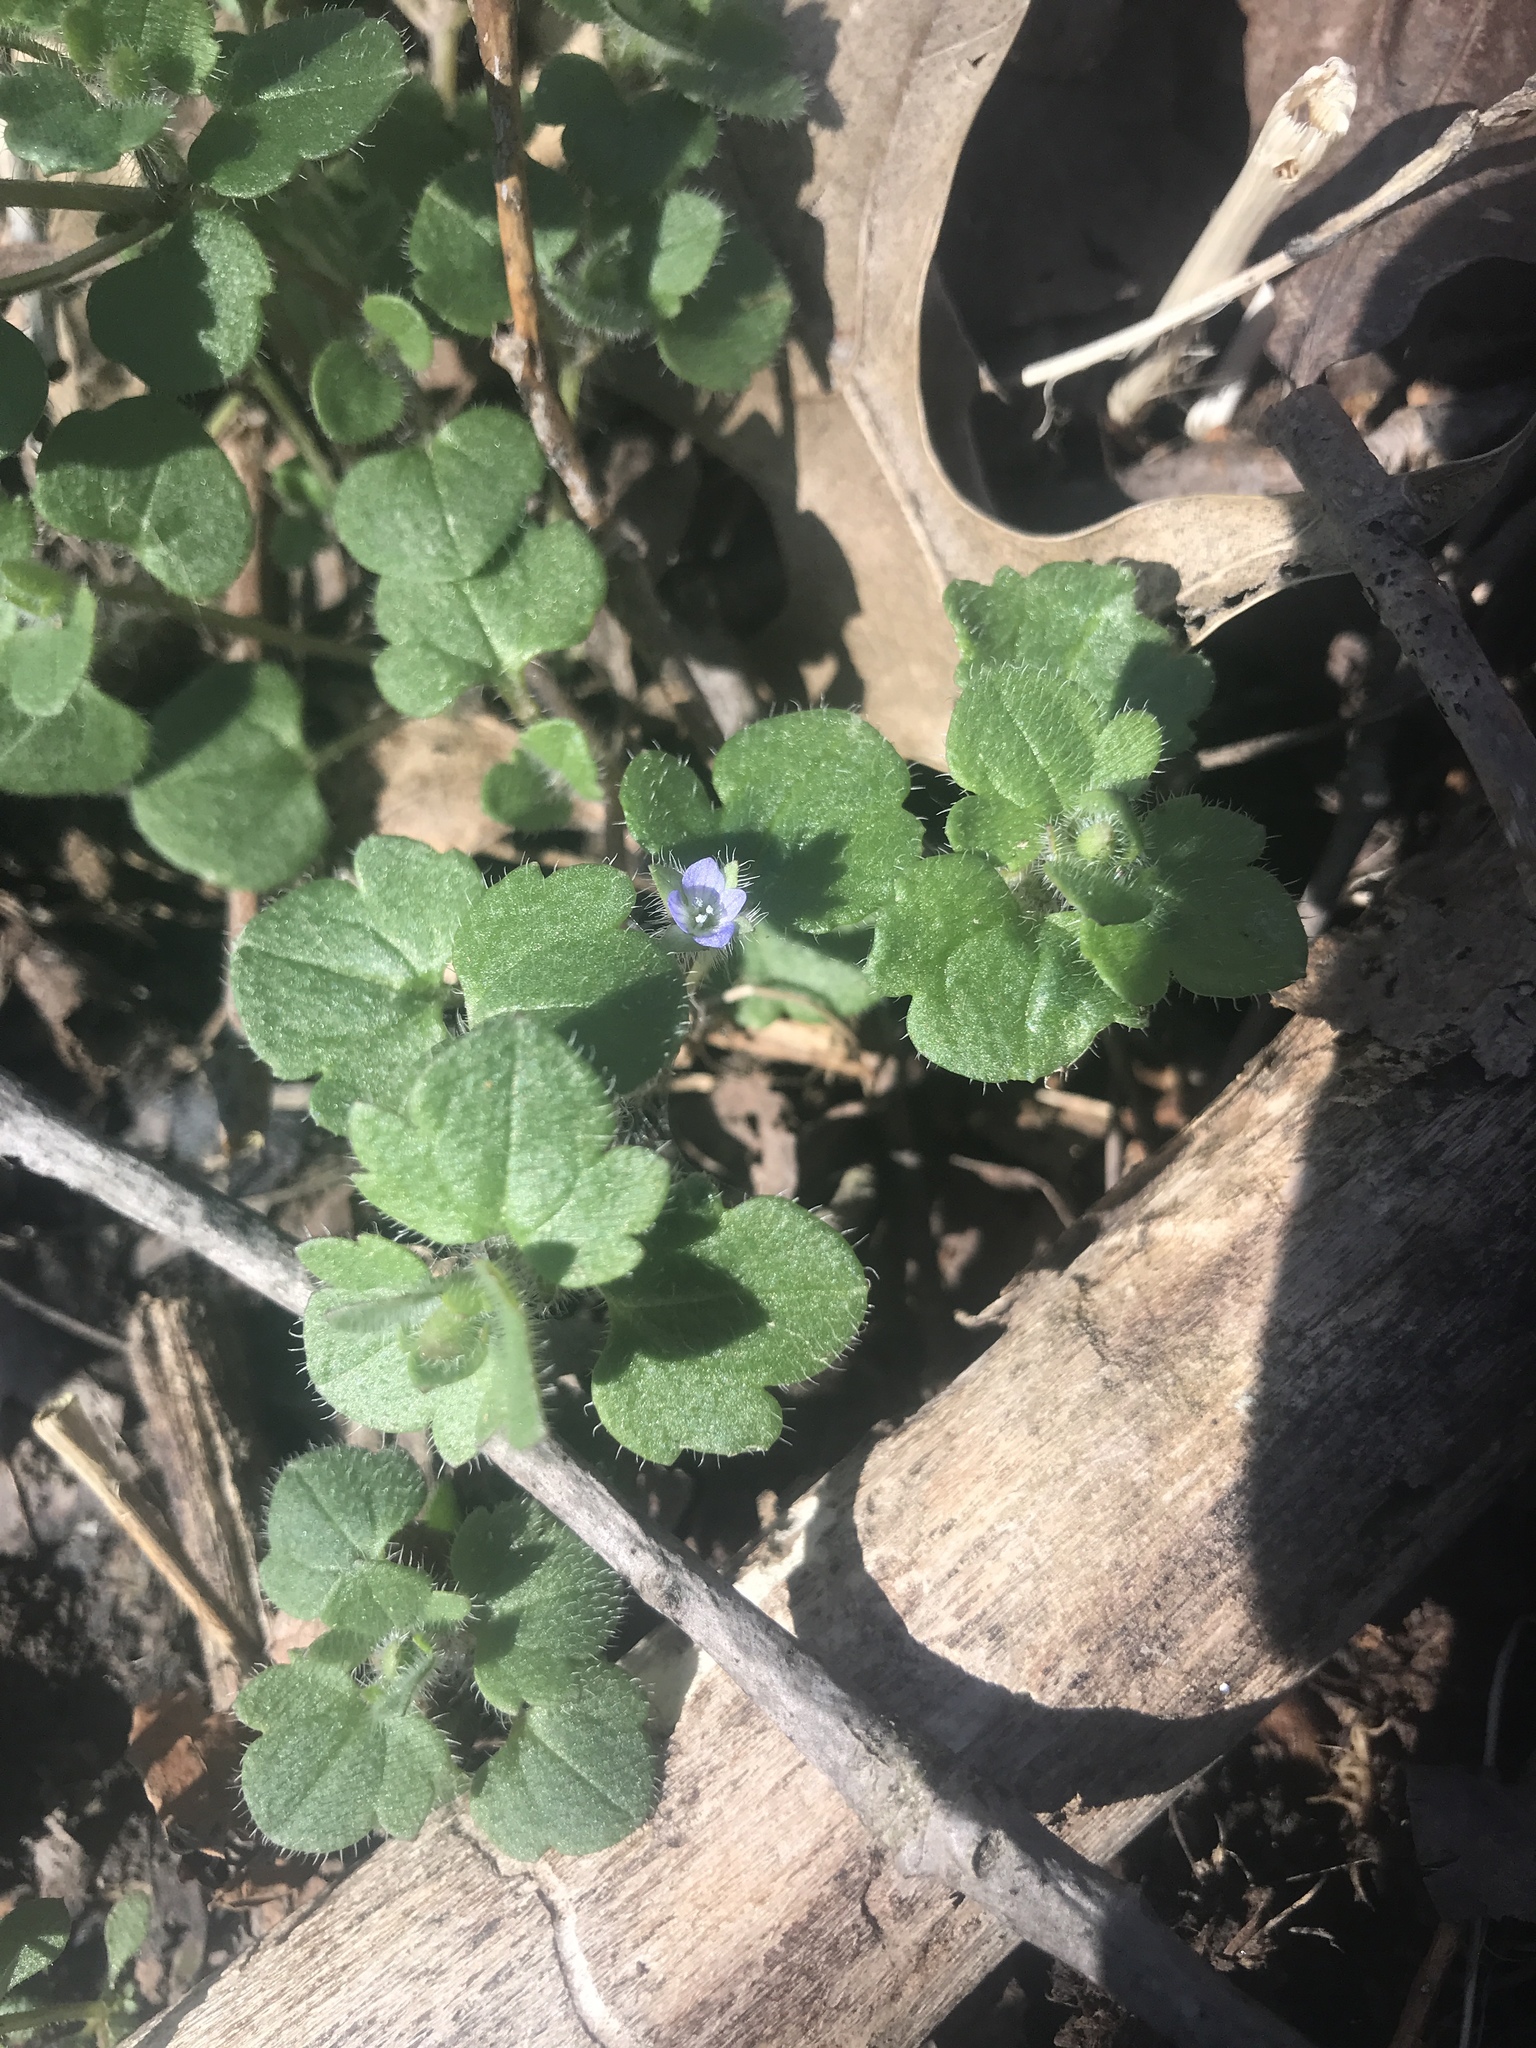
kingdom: Plantae
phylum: Tracheophyta
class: Magnoliopsida
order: Lamiales
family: Plantaginaceae
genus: Veronica
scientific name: Veronica hederifolia
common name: Ivy-leaved speedwell
